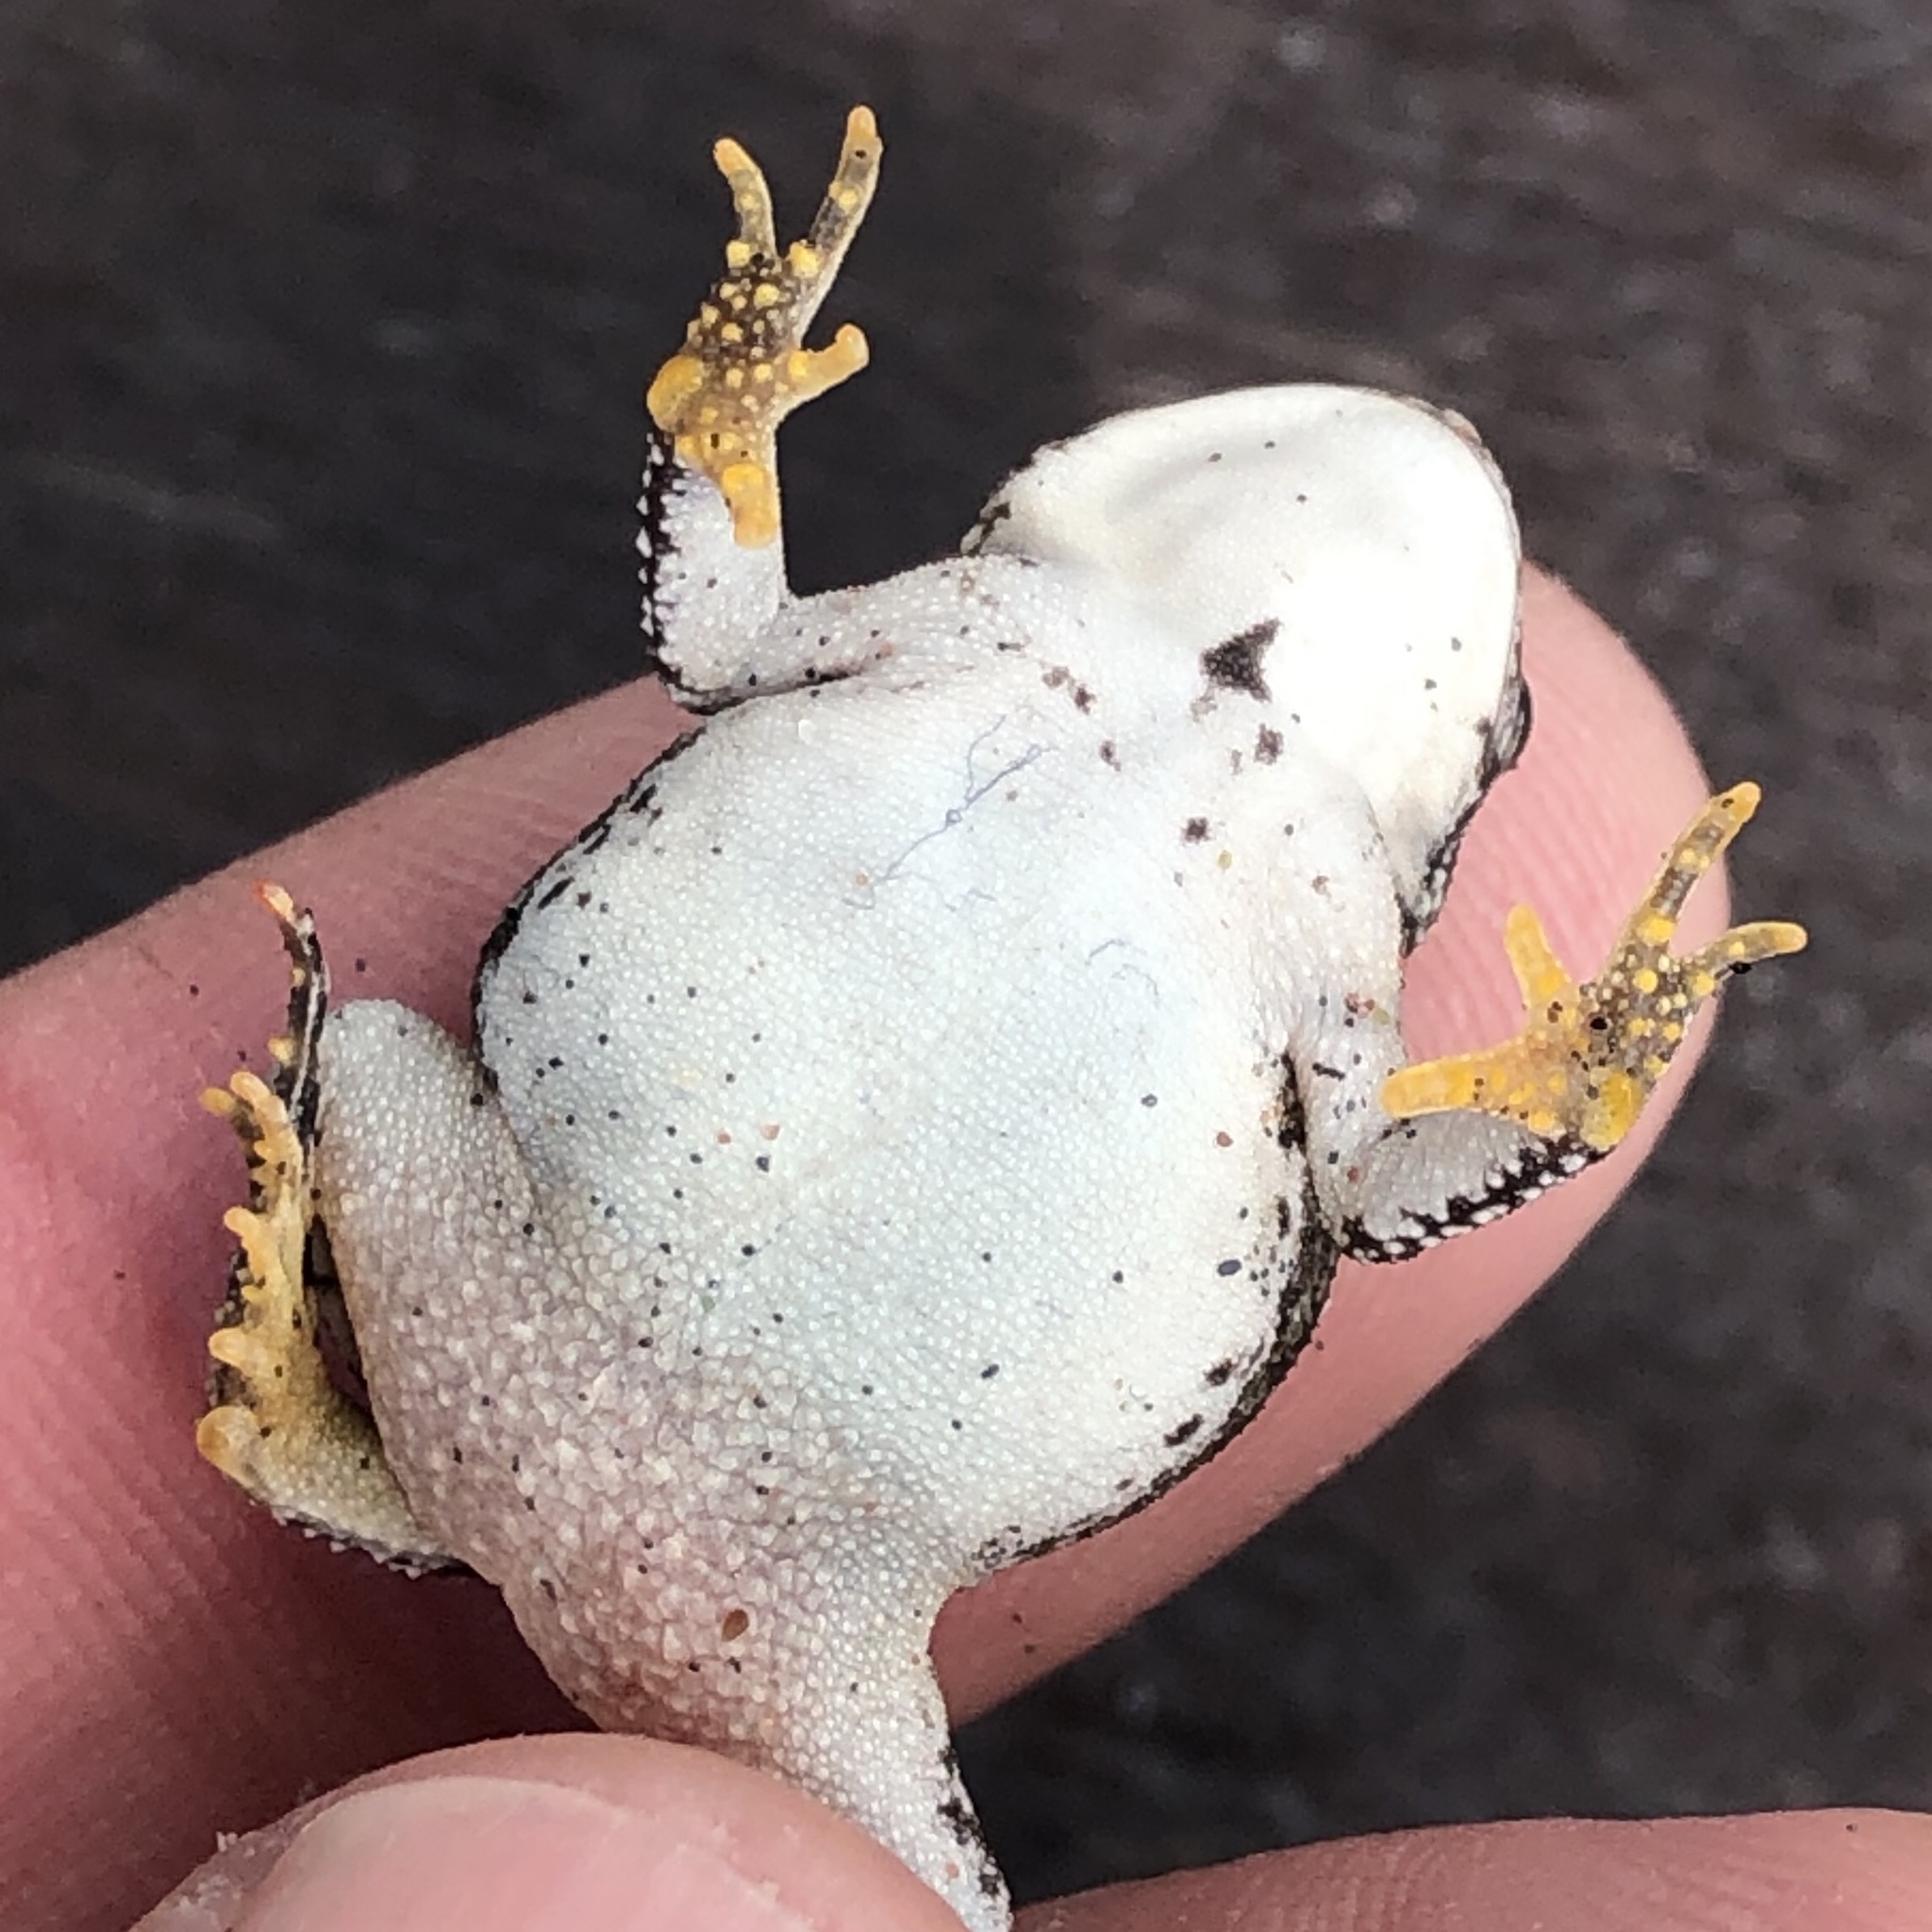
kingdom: Animalia
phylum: Chordata
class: Amphibia
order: Anura
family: Bufonidae
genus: Anaxyrus
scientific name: Anaxyrus fowleri
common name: Fowler's toad
